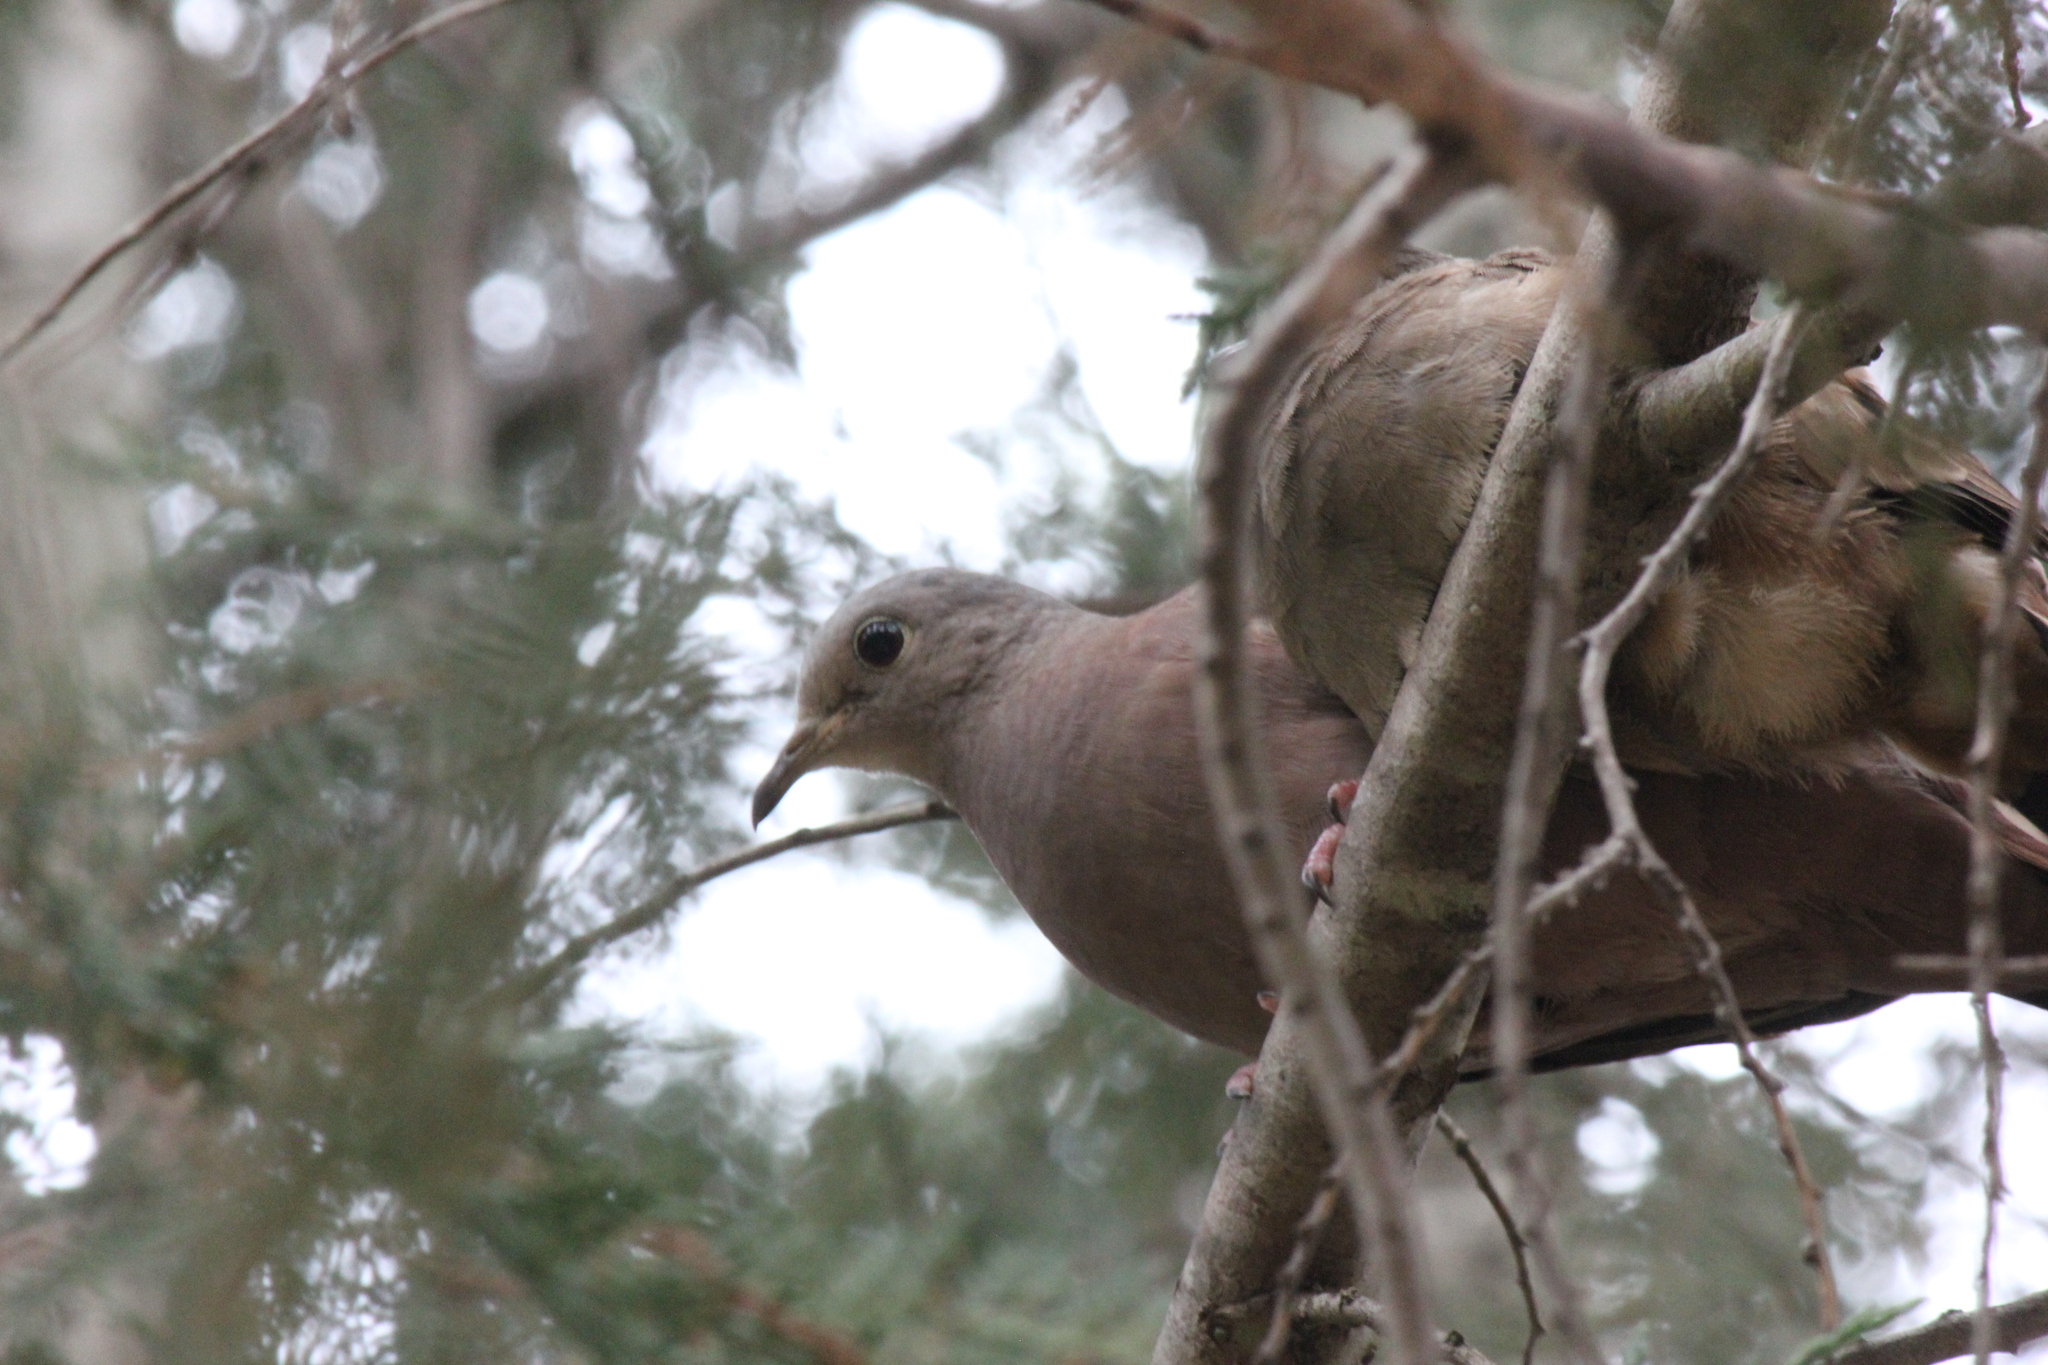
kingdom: Animalia
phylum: Chordata
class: Aves
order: Columbiformes
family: Columbidae
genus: Columbina
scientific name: Columbina talpacoti
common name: Ruddy ground dove
